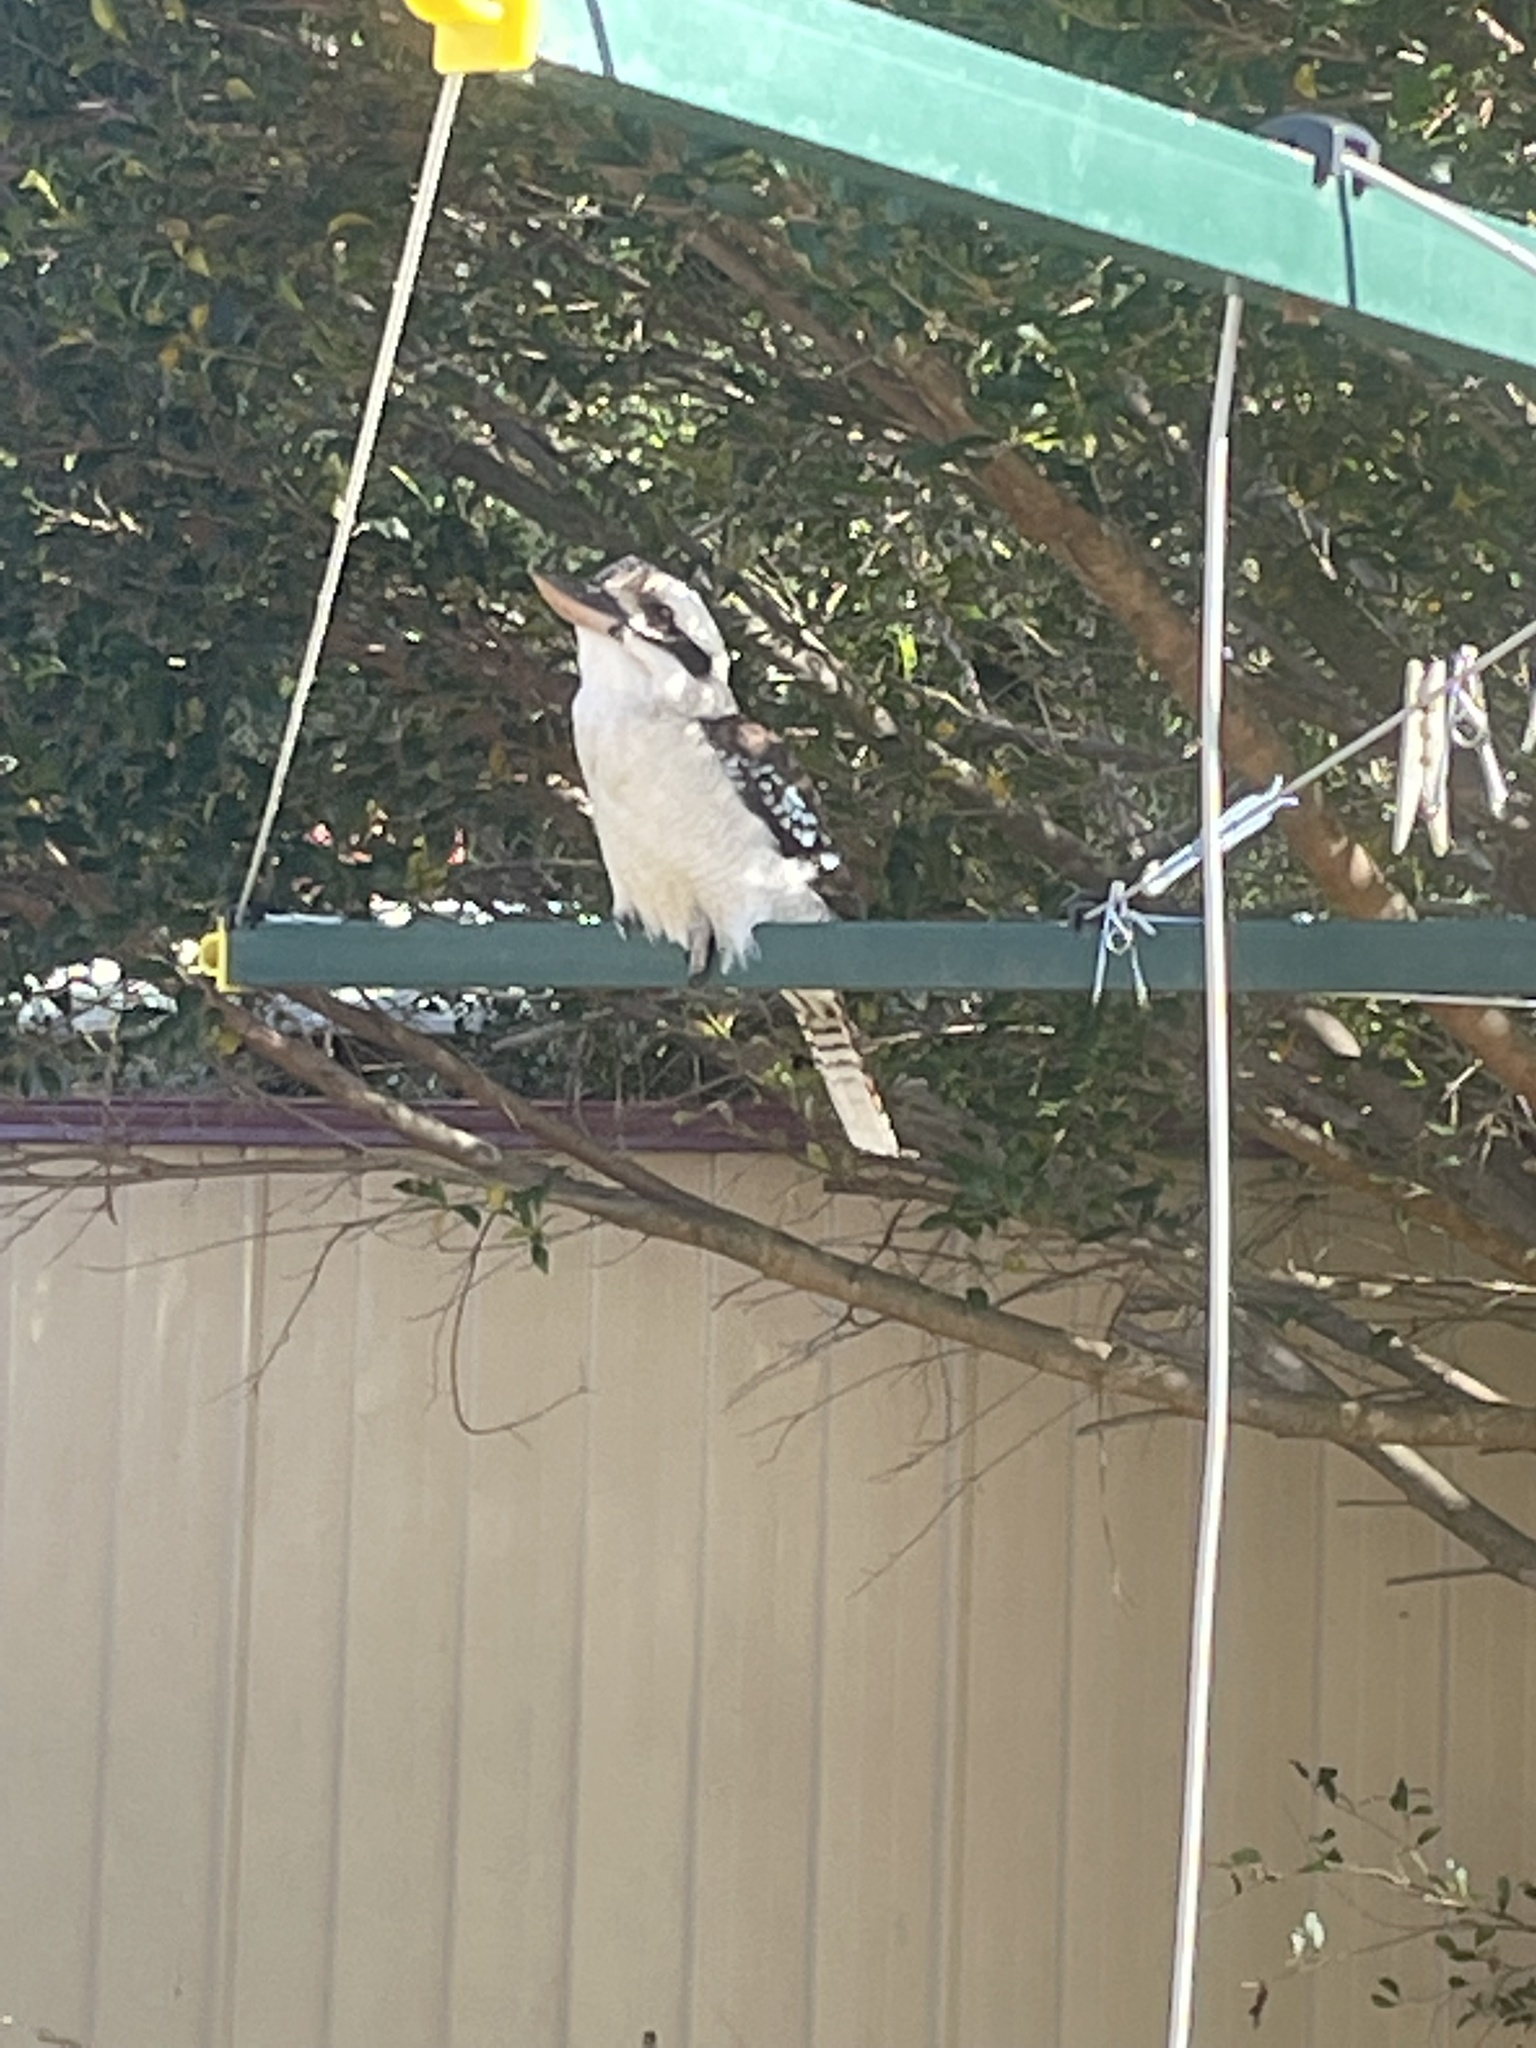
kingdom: Animalia
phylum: Chordata
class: Aves
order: Coraciiformes
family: Alcedinidae
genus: Dacelo
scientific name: Dacelo novaeguineae
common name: Laughing kookaburra
